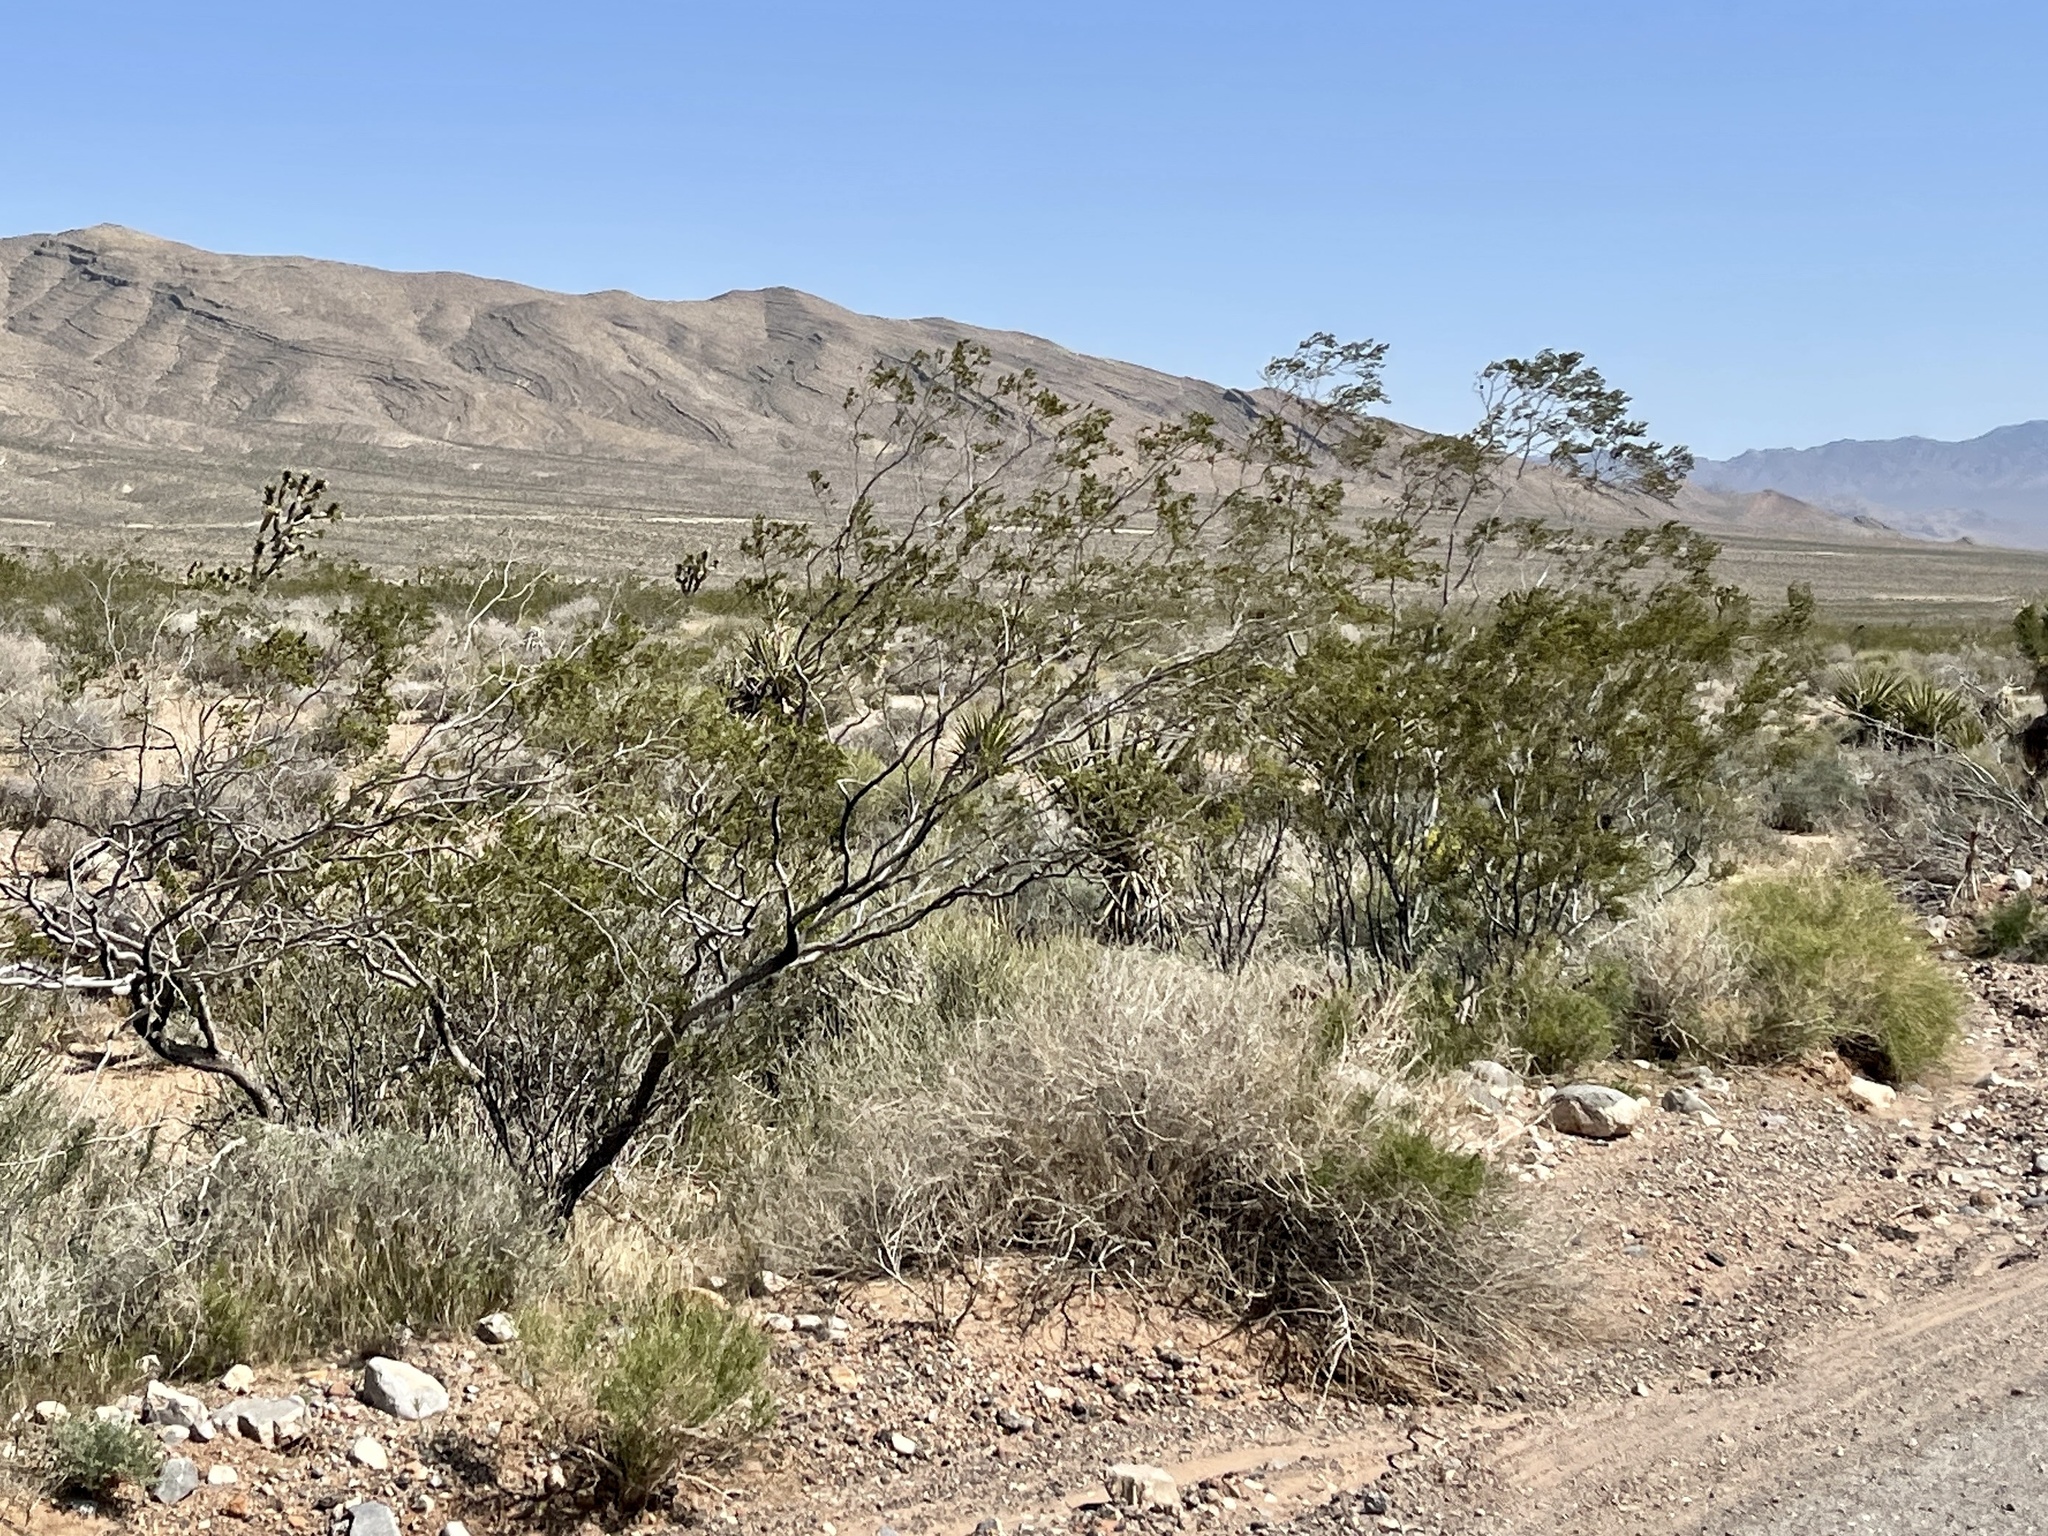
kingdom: Plantae
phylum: Tracheophyta
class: Magnoliopsida
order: Zygophyllales
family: Zygophyllaceae
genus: Larrea
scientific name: Larrea tridentata
